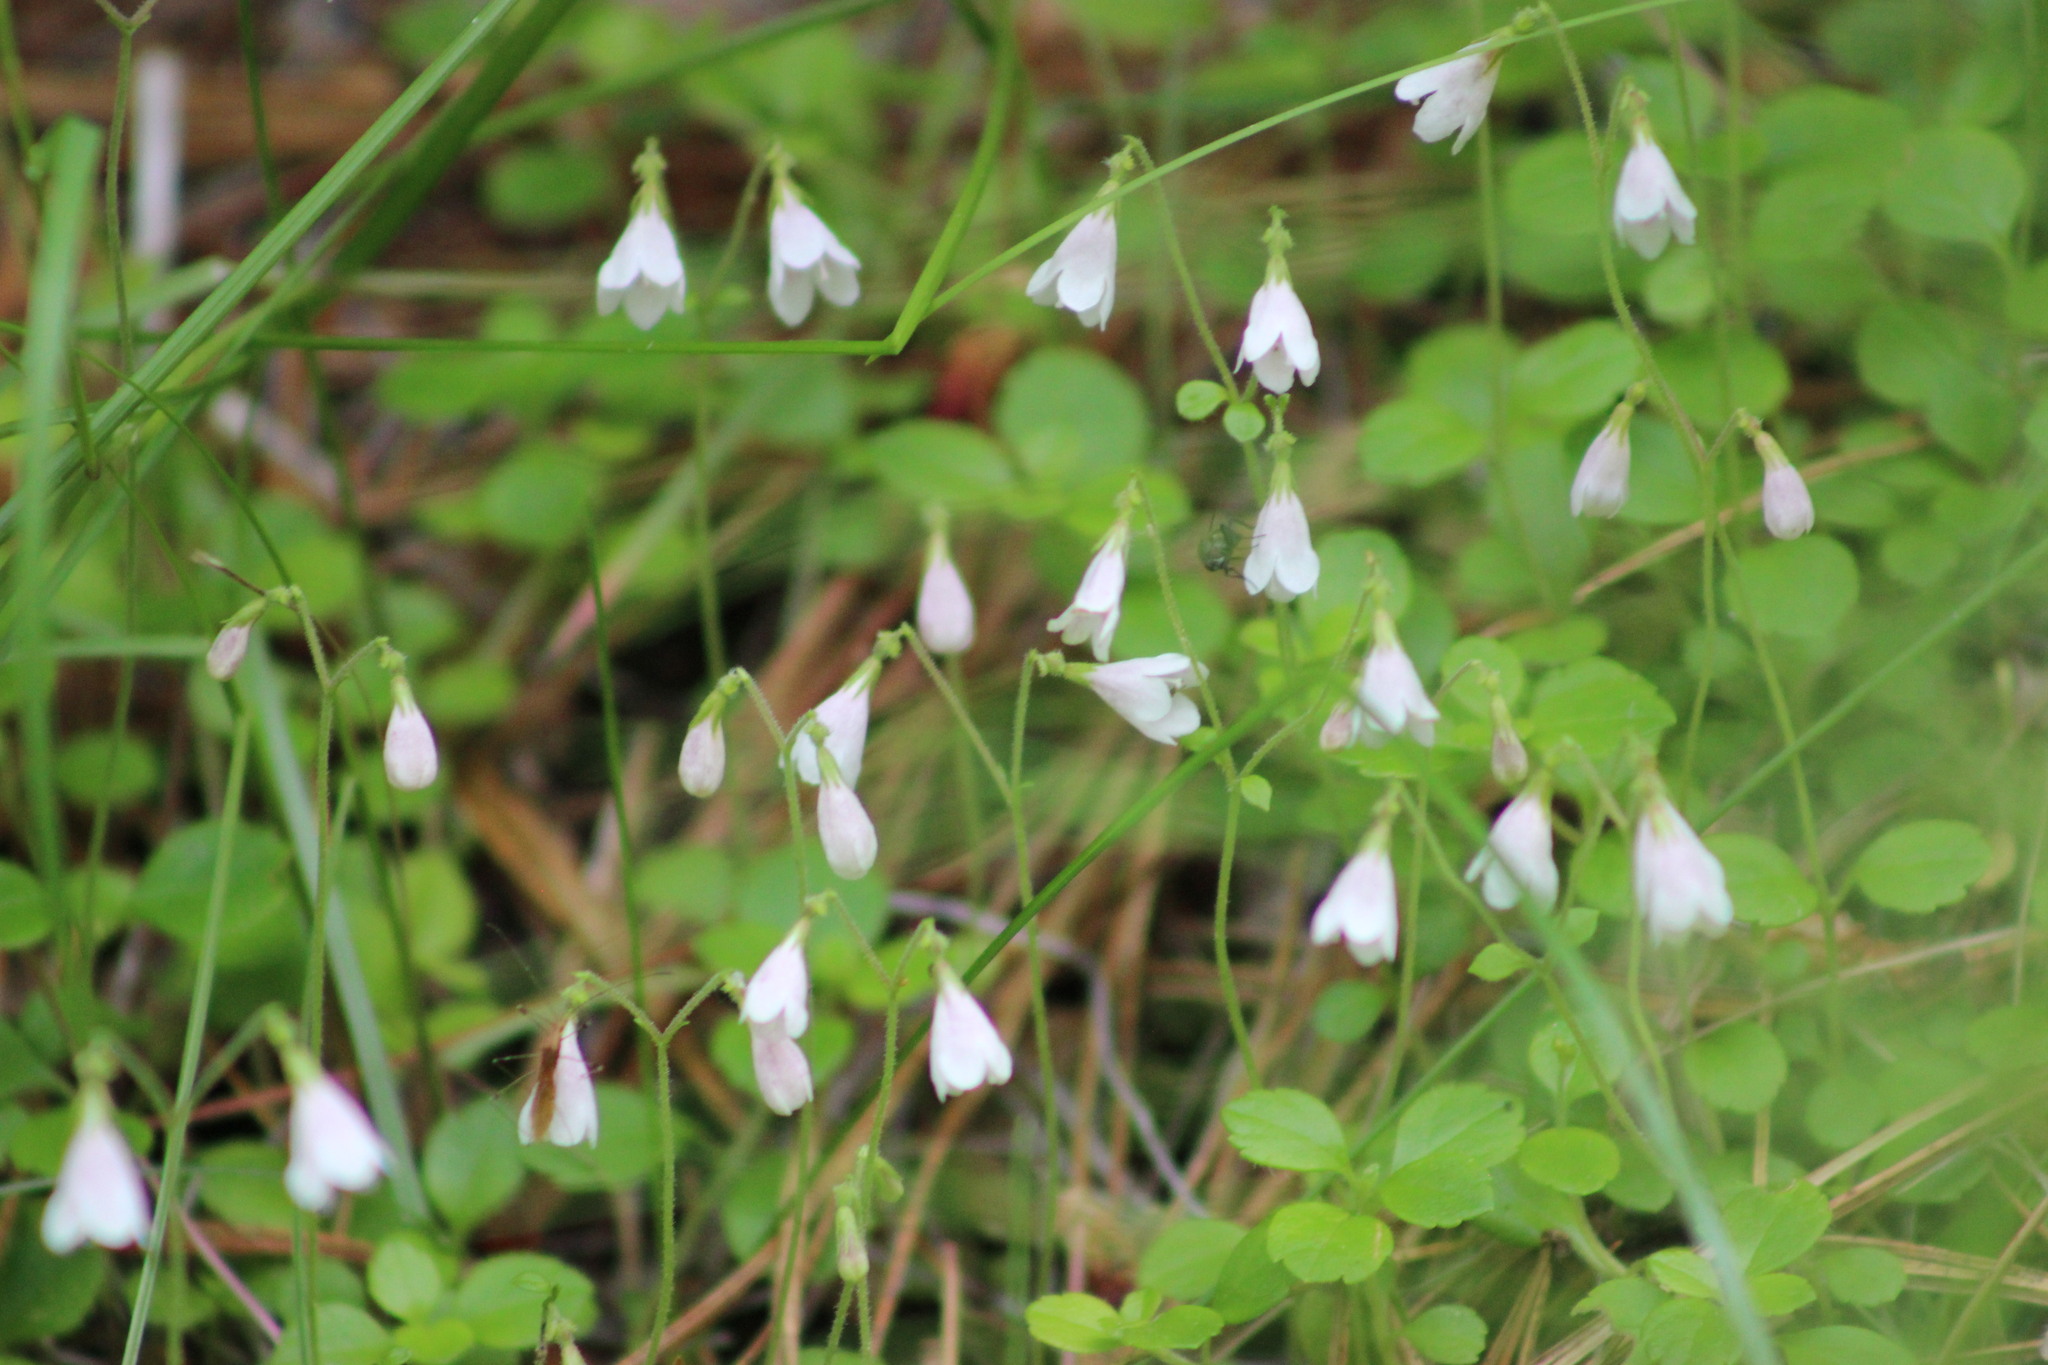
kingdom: Plantae
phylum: Tracheophyta
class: Magnoliopsida
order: Dipsacales
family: Caprifoliaceae
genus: Linnaea
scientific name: Linnaea borealis
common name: Twinflower
